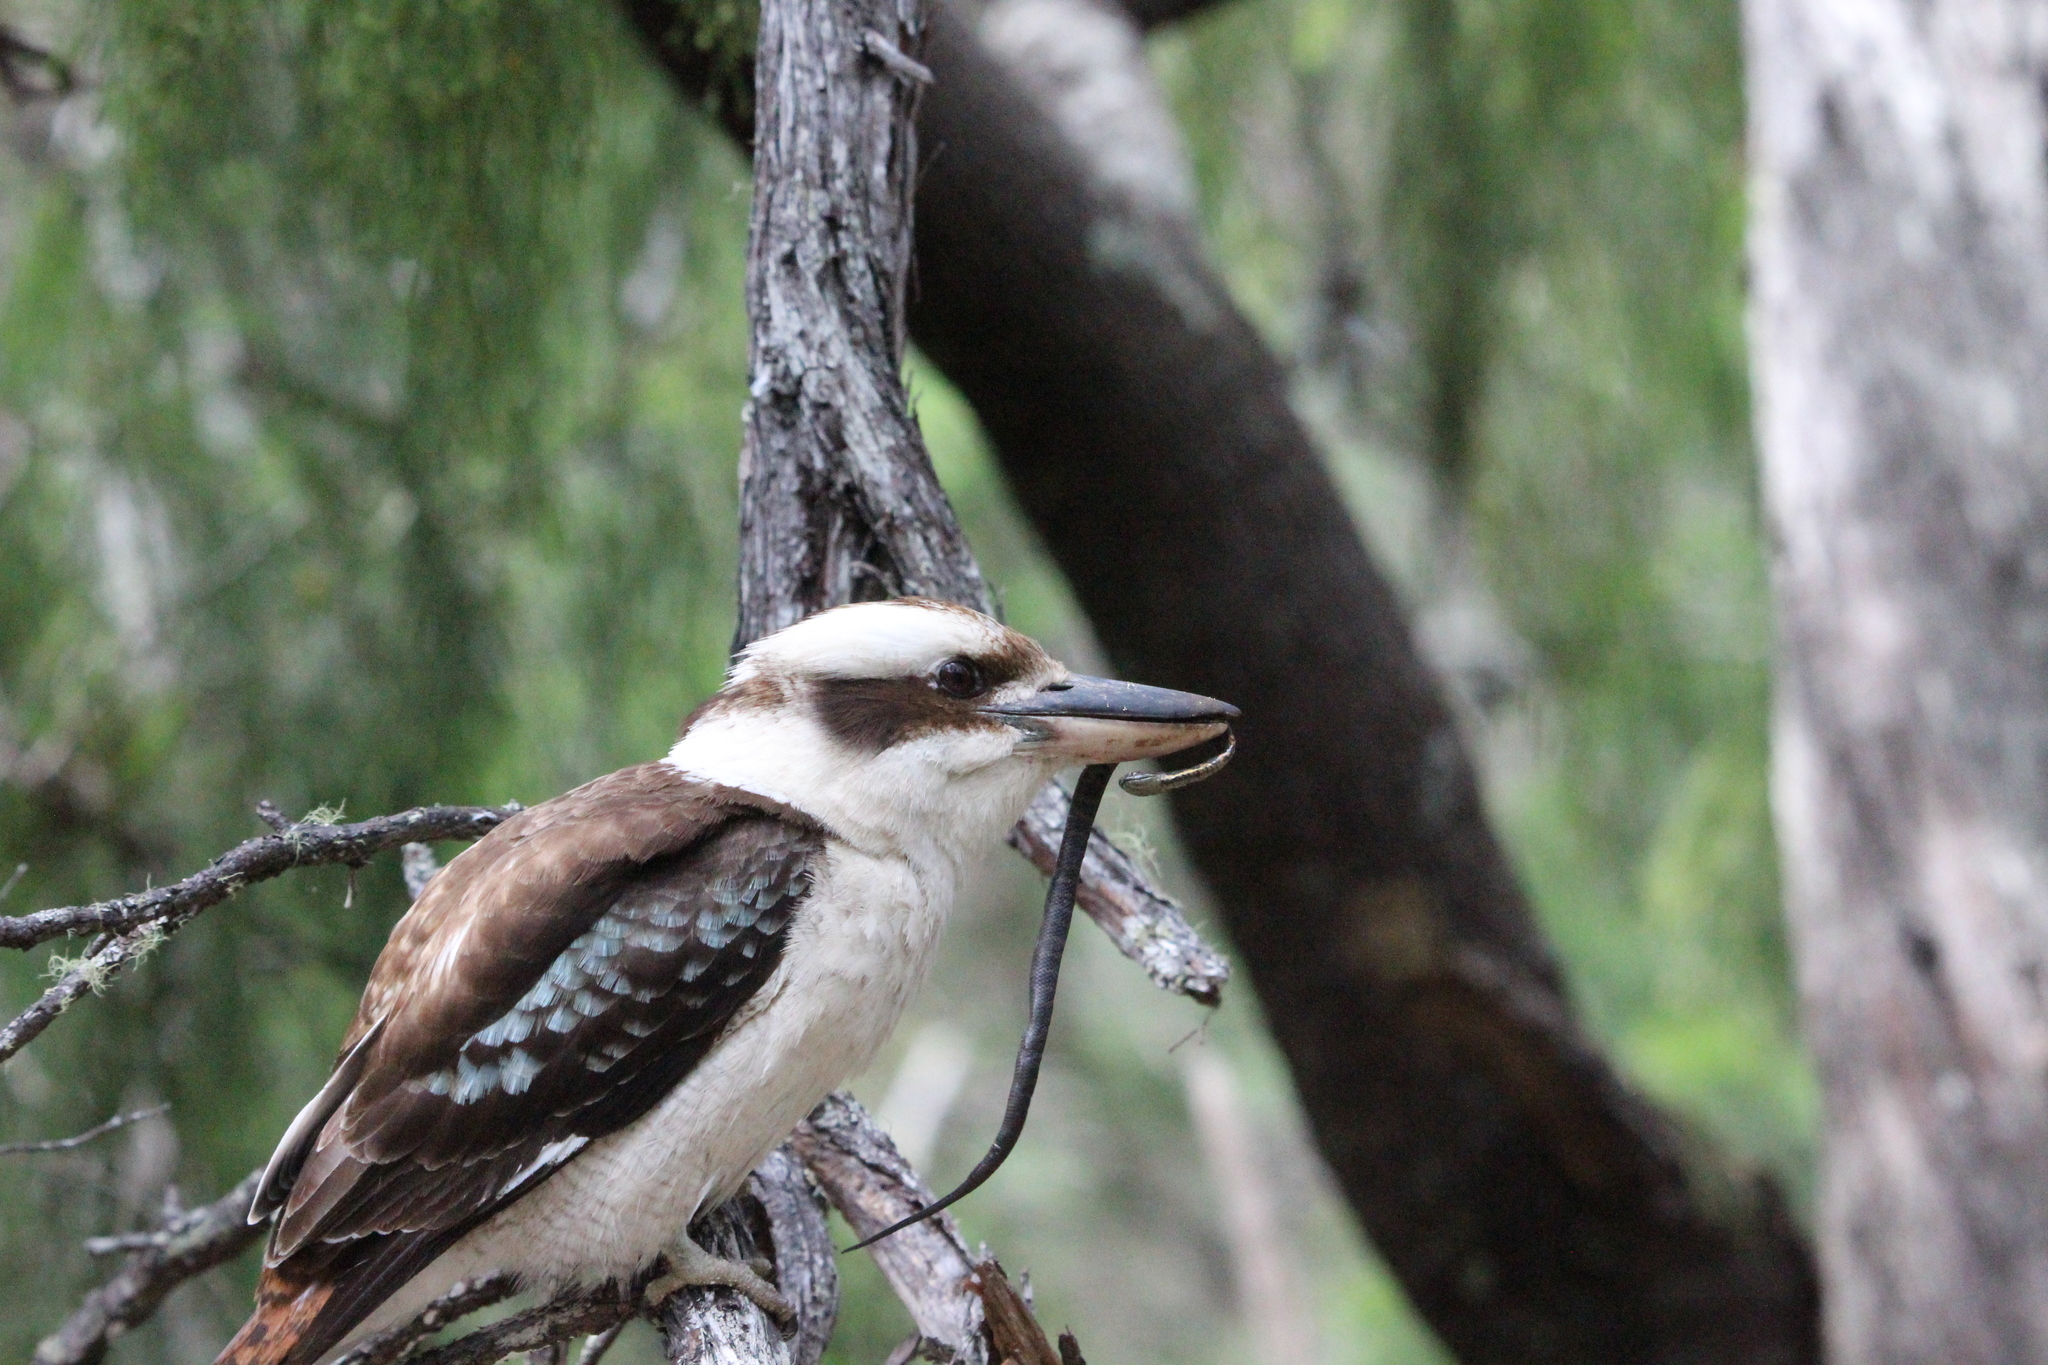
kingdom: Animalia
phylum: Chordata
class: Squamata
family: Elapidae
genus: Notechis
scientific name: Notechis scutatus
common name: Mainland tiger snake
